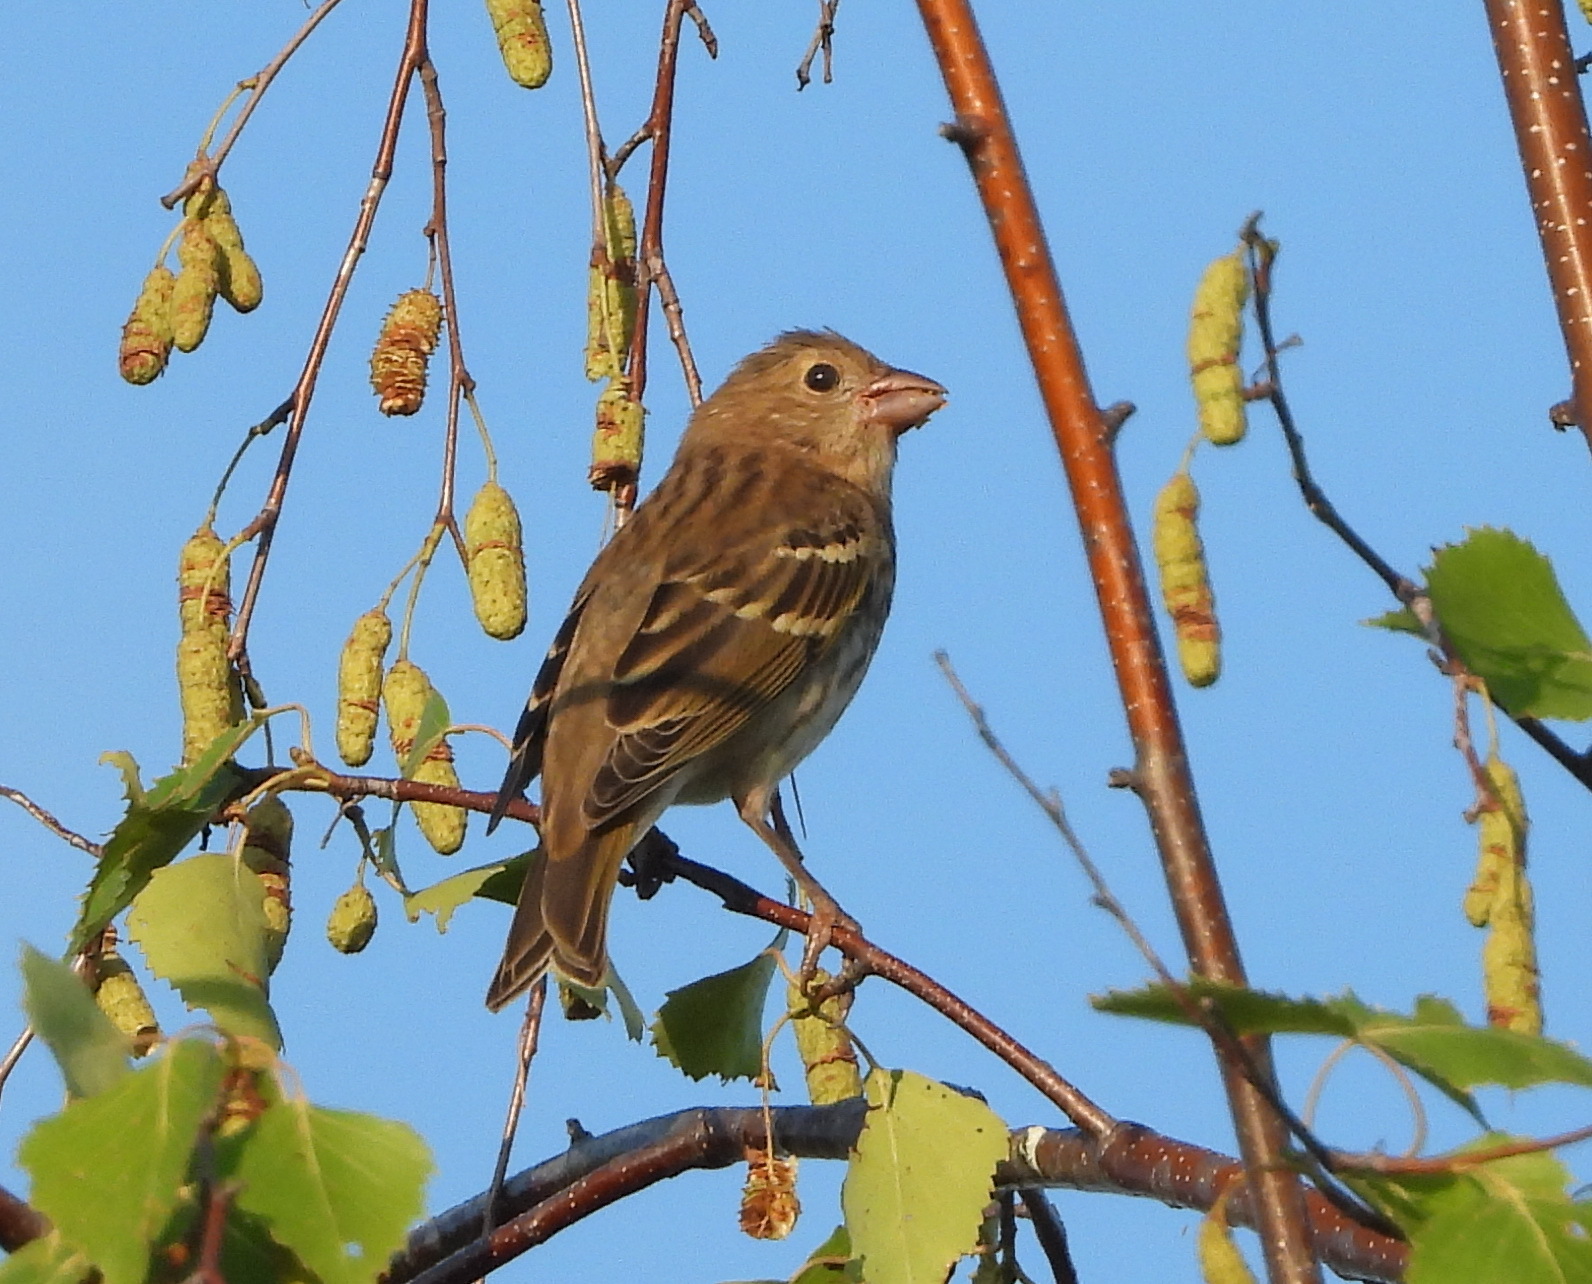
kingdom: Animalia
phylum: Chordata
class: Aves
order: Passeriformes
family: Fringillidae
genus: Carpodacus
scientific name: Carpodacus erythrinus
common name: Common rosefinch
